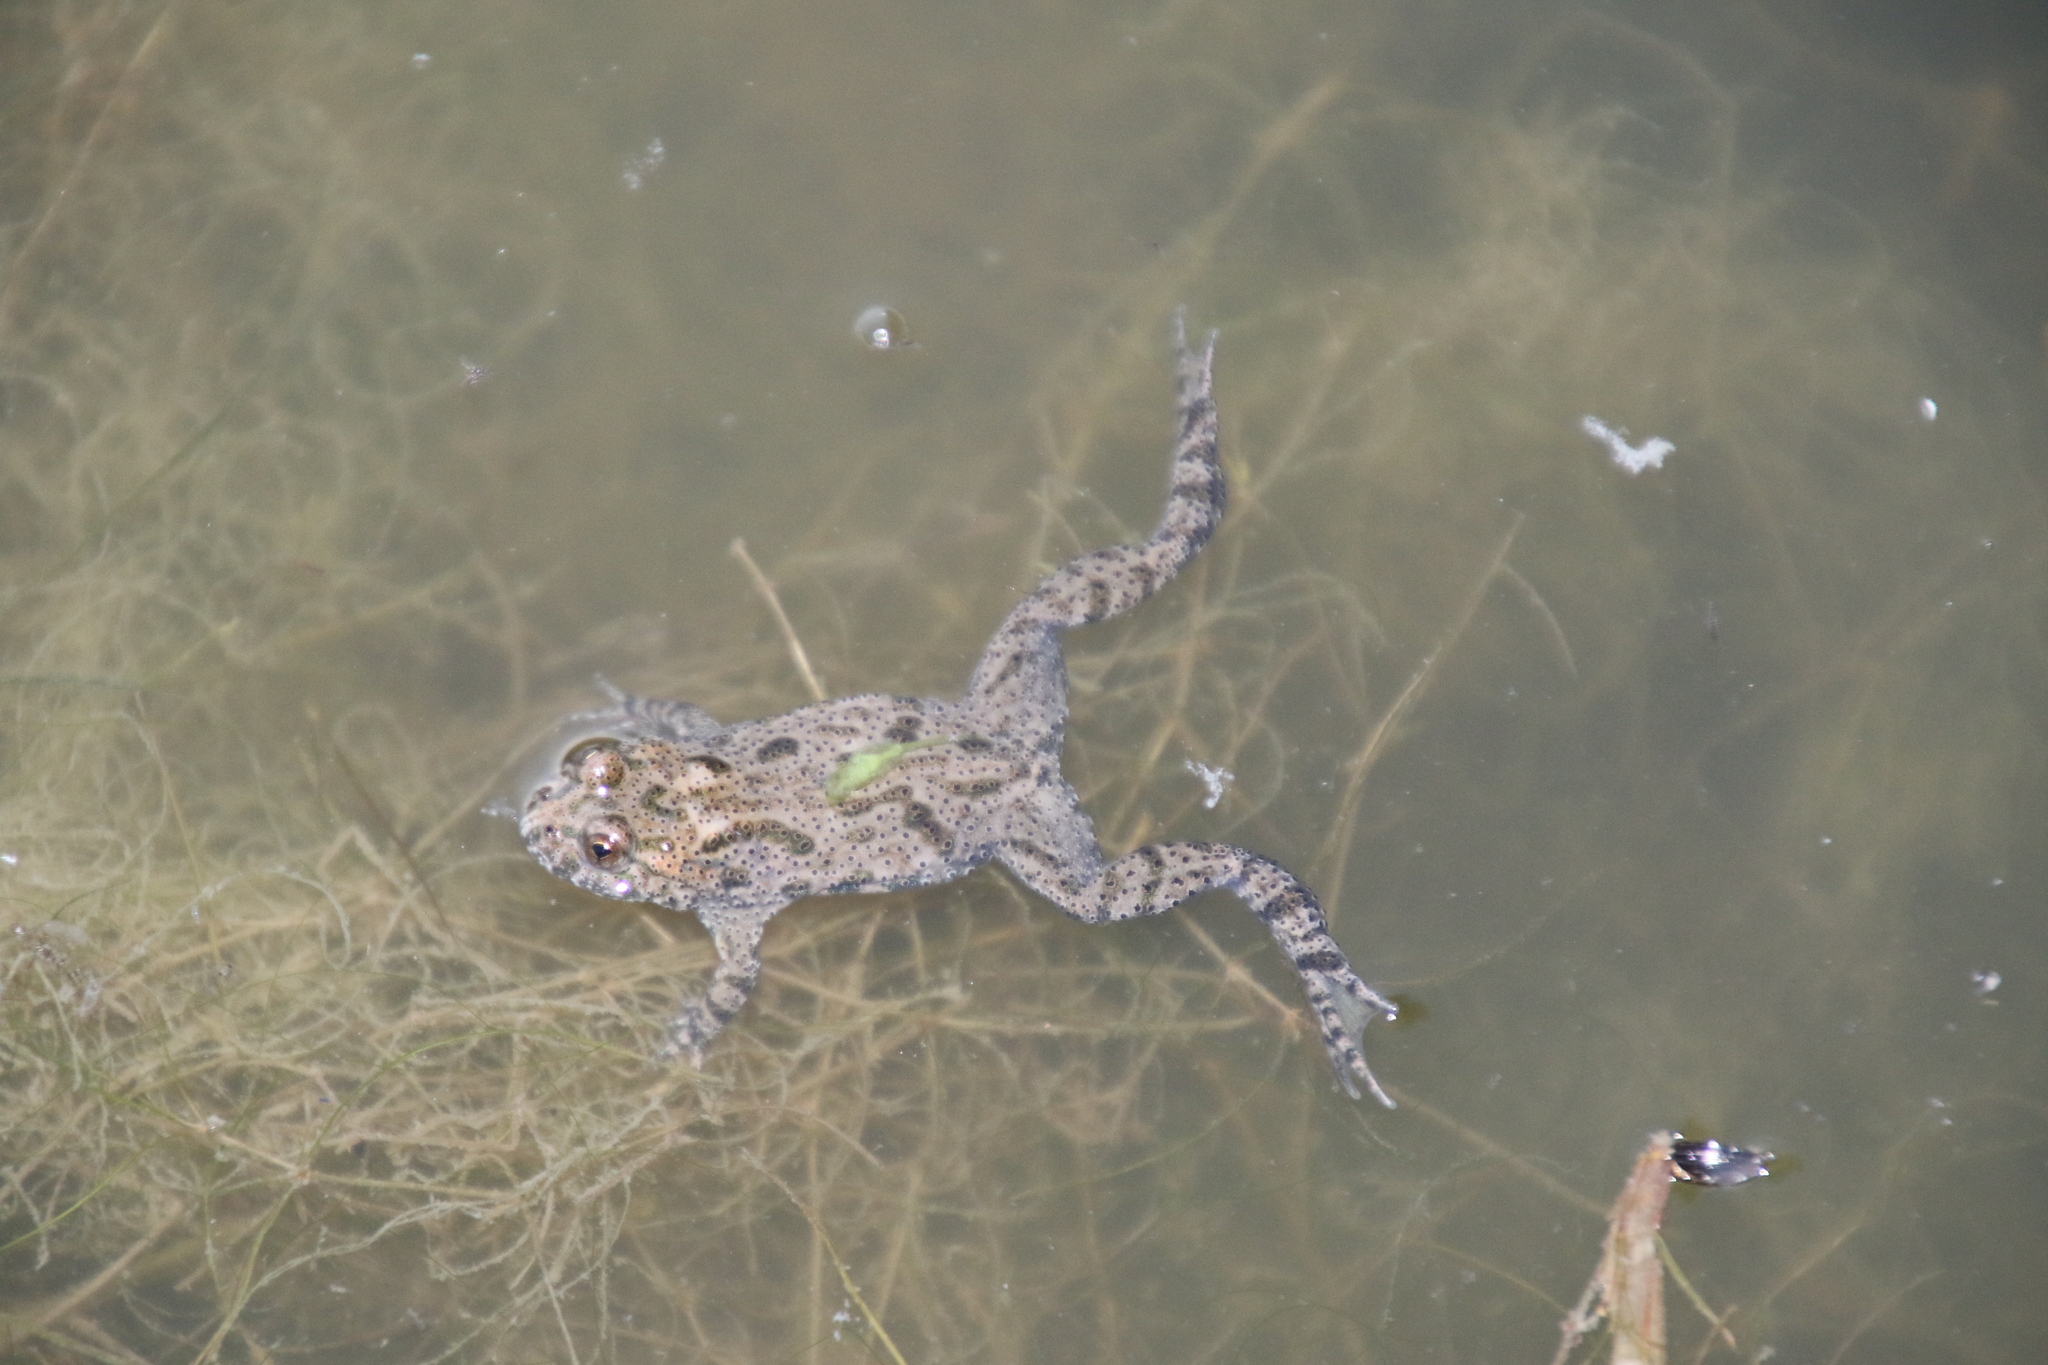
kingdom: Animalia
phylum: Chordata
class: Amphibia
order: Anura
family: Bombinatoridae
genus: Bombina
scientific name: Bombina bombina
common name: Fire-bellied toad
